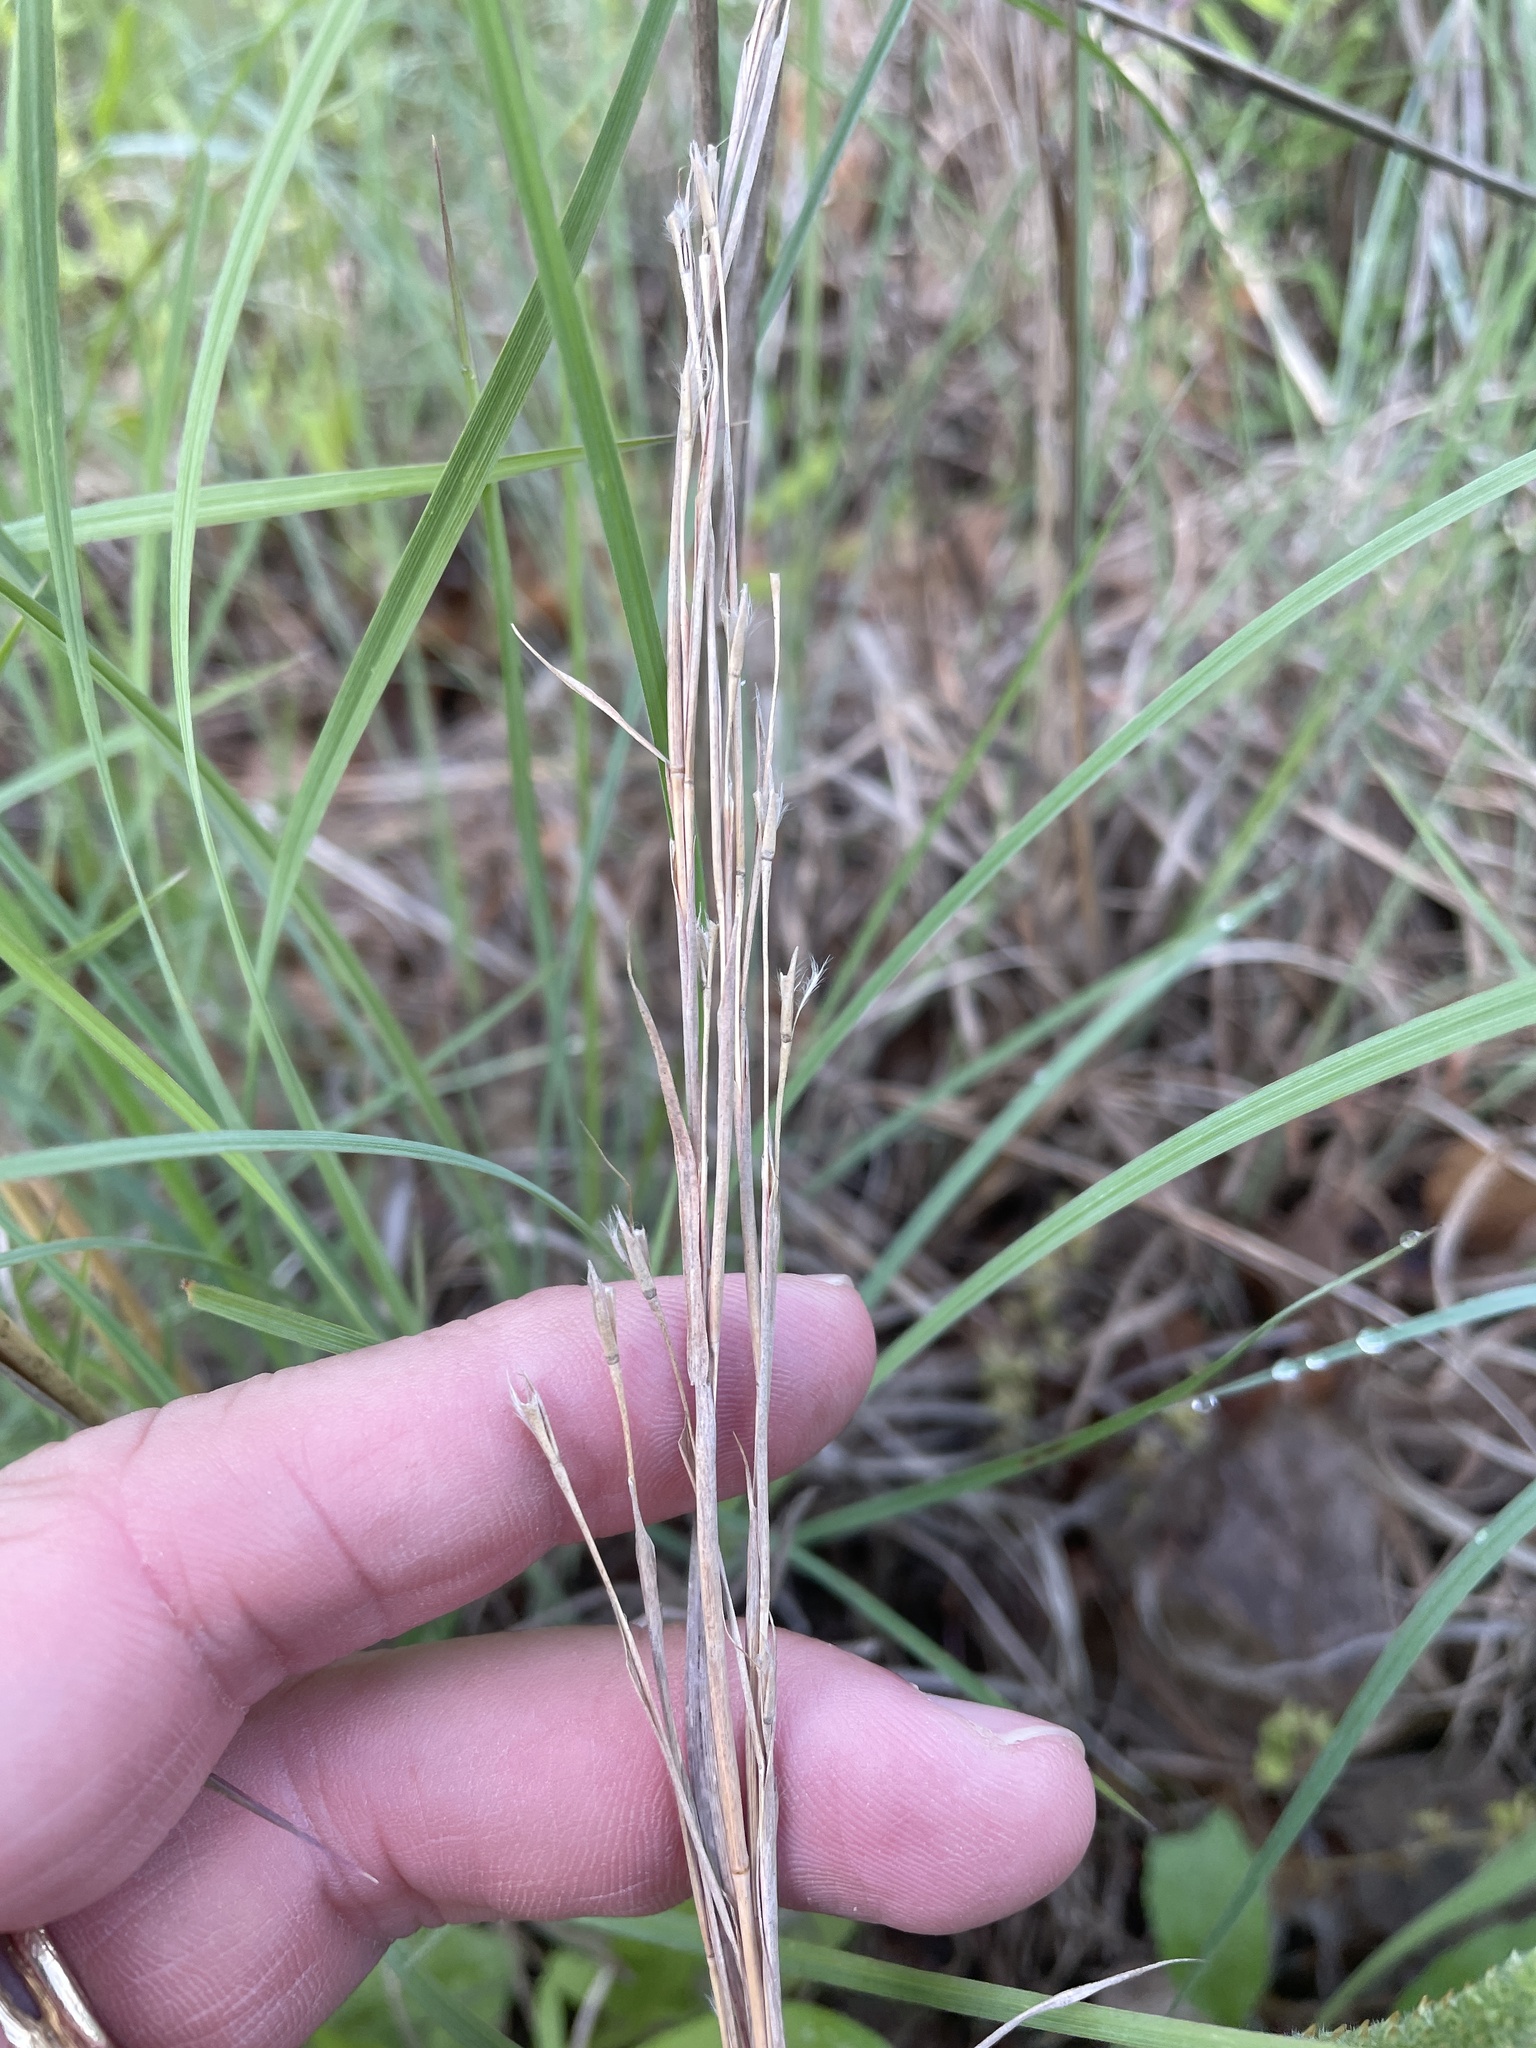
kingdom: Plantae
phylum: Tracheophyta
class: Liliopsida
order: Poales
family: Poaceae
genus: Schizachyrium
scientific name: Schizachyrium scoparium
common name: Little bluestem
